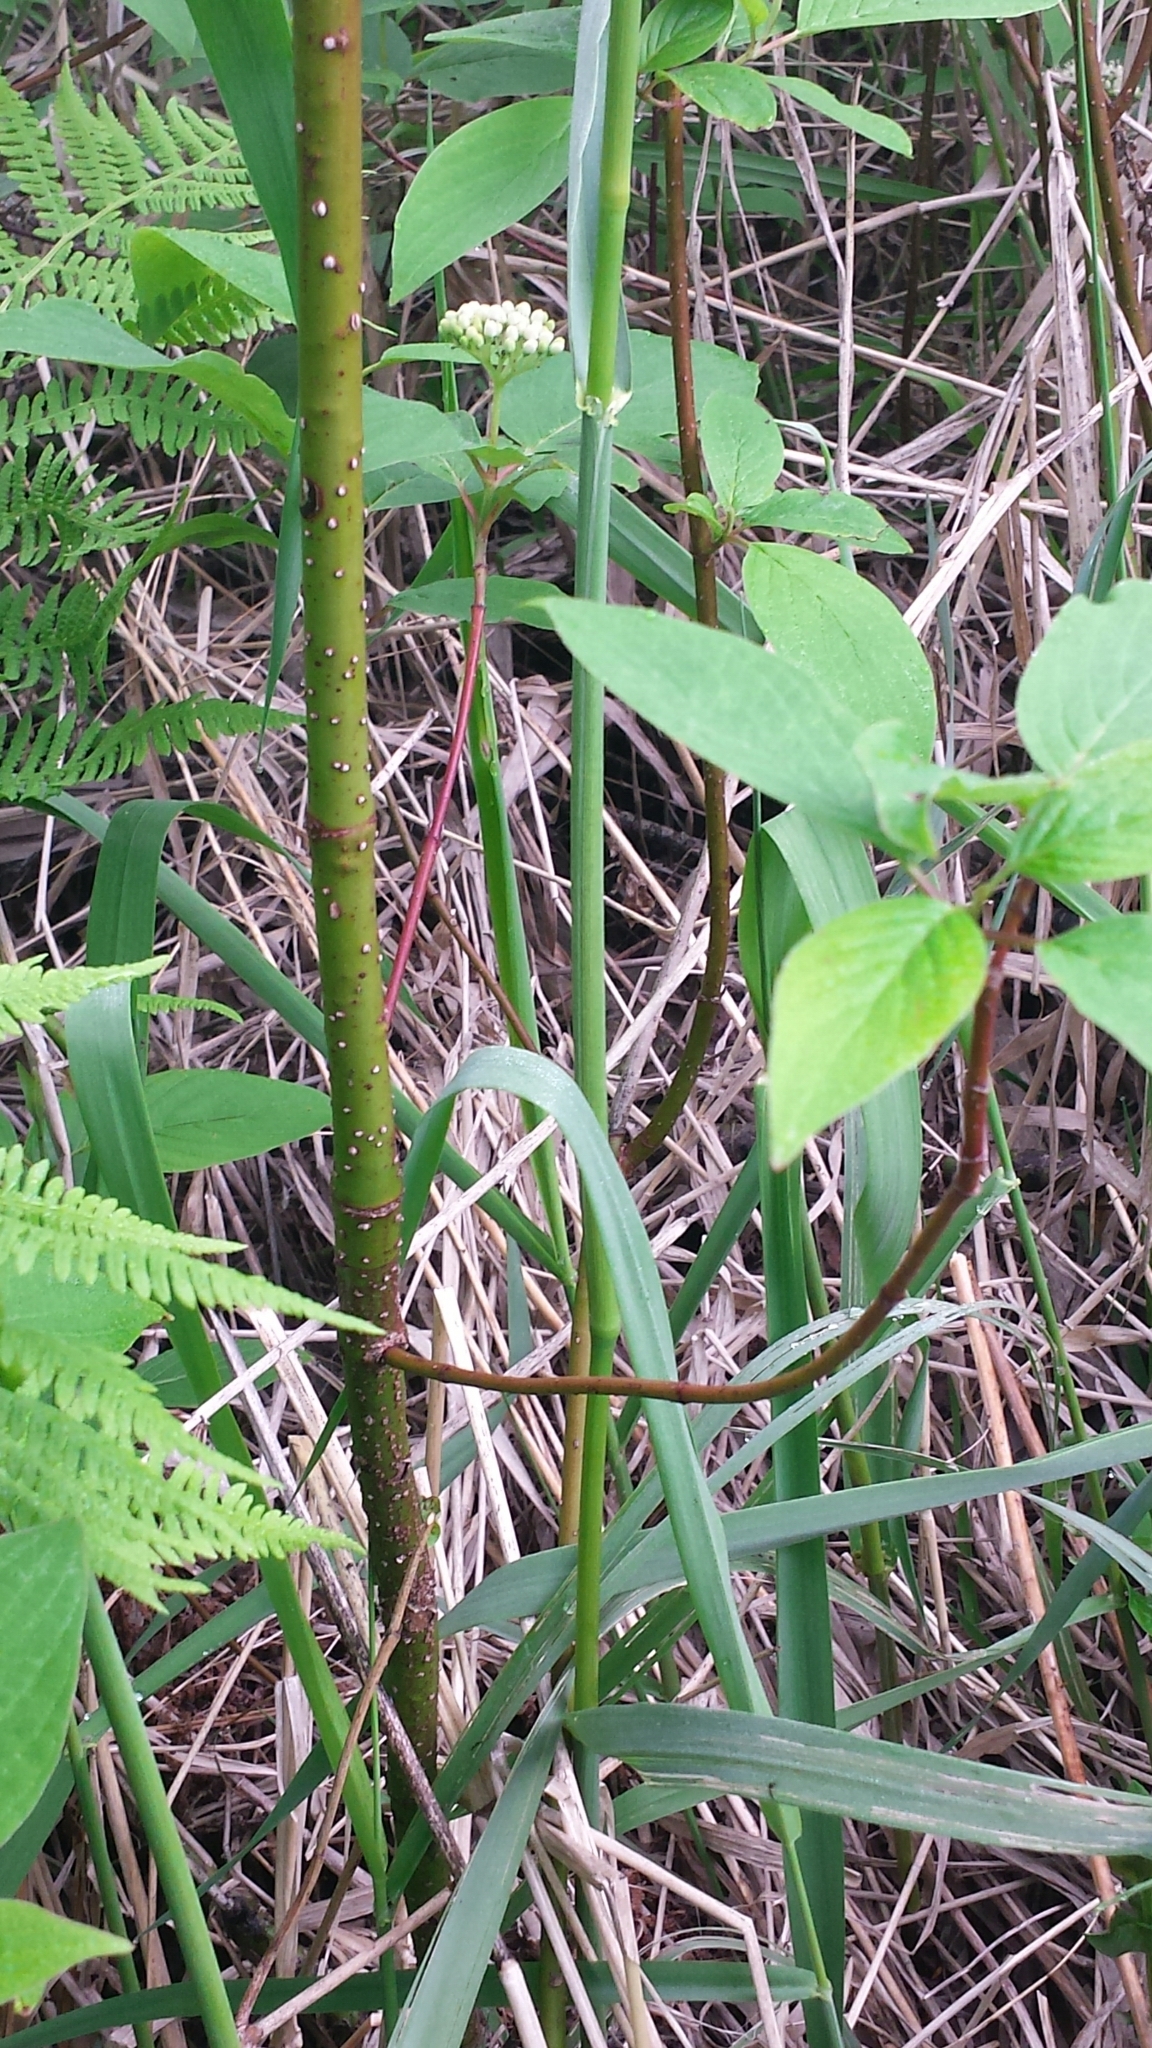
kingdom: Plantae
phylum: Tracheophyta
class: Magnoliopsida
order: Cornales
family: Cornaceae
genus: Cornus
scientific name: Cornus sericea
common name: Red-osier dogwood
